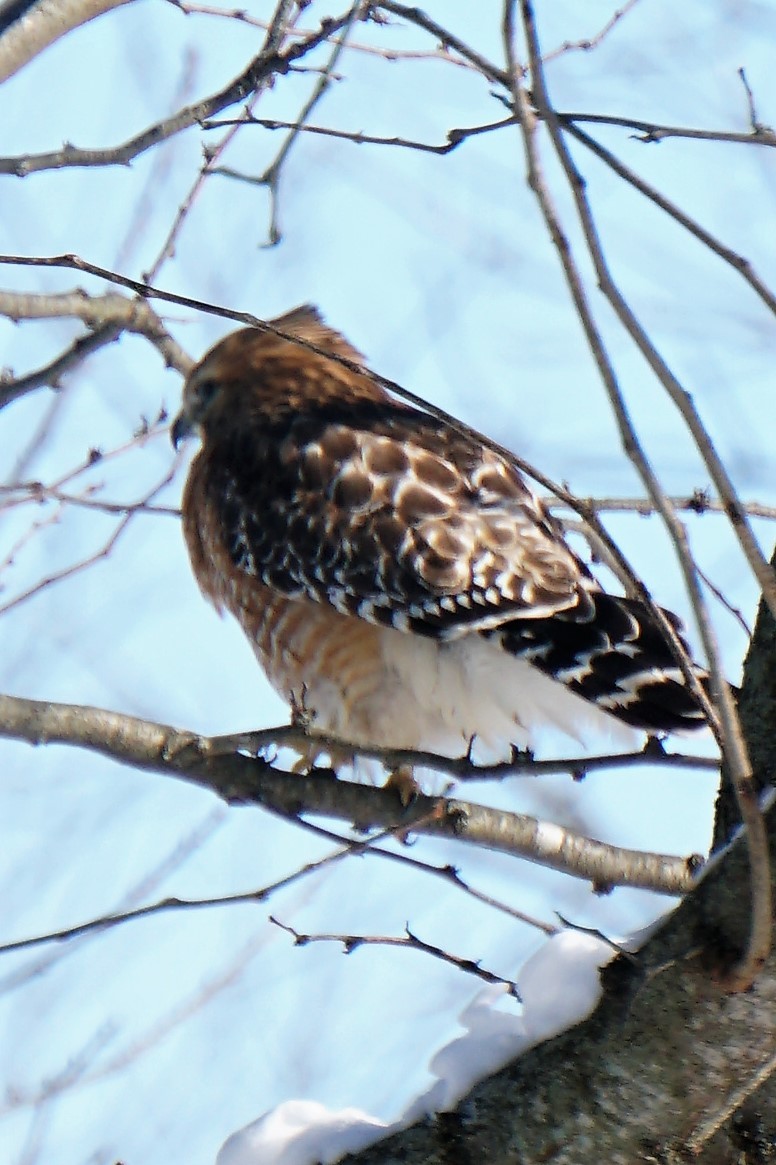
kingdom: Animalia
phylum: Chordata
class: Aves
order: Accipitriformes
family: Accipitridae
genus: Buteo
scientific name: Buteo lineatus
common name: Red-shouldered hawk
